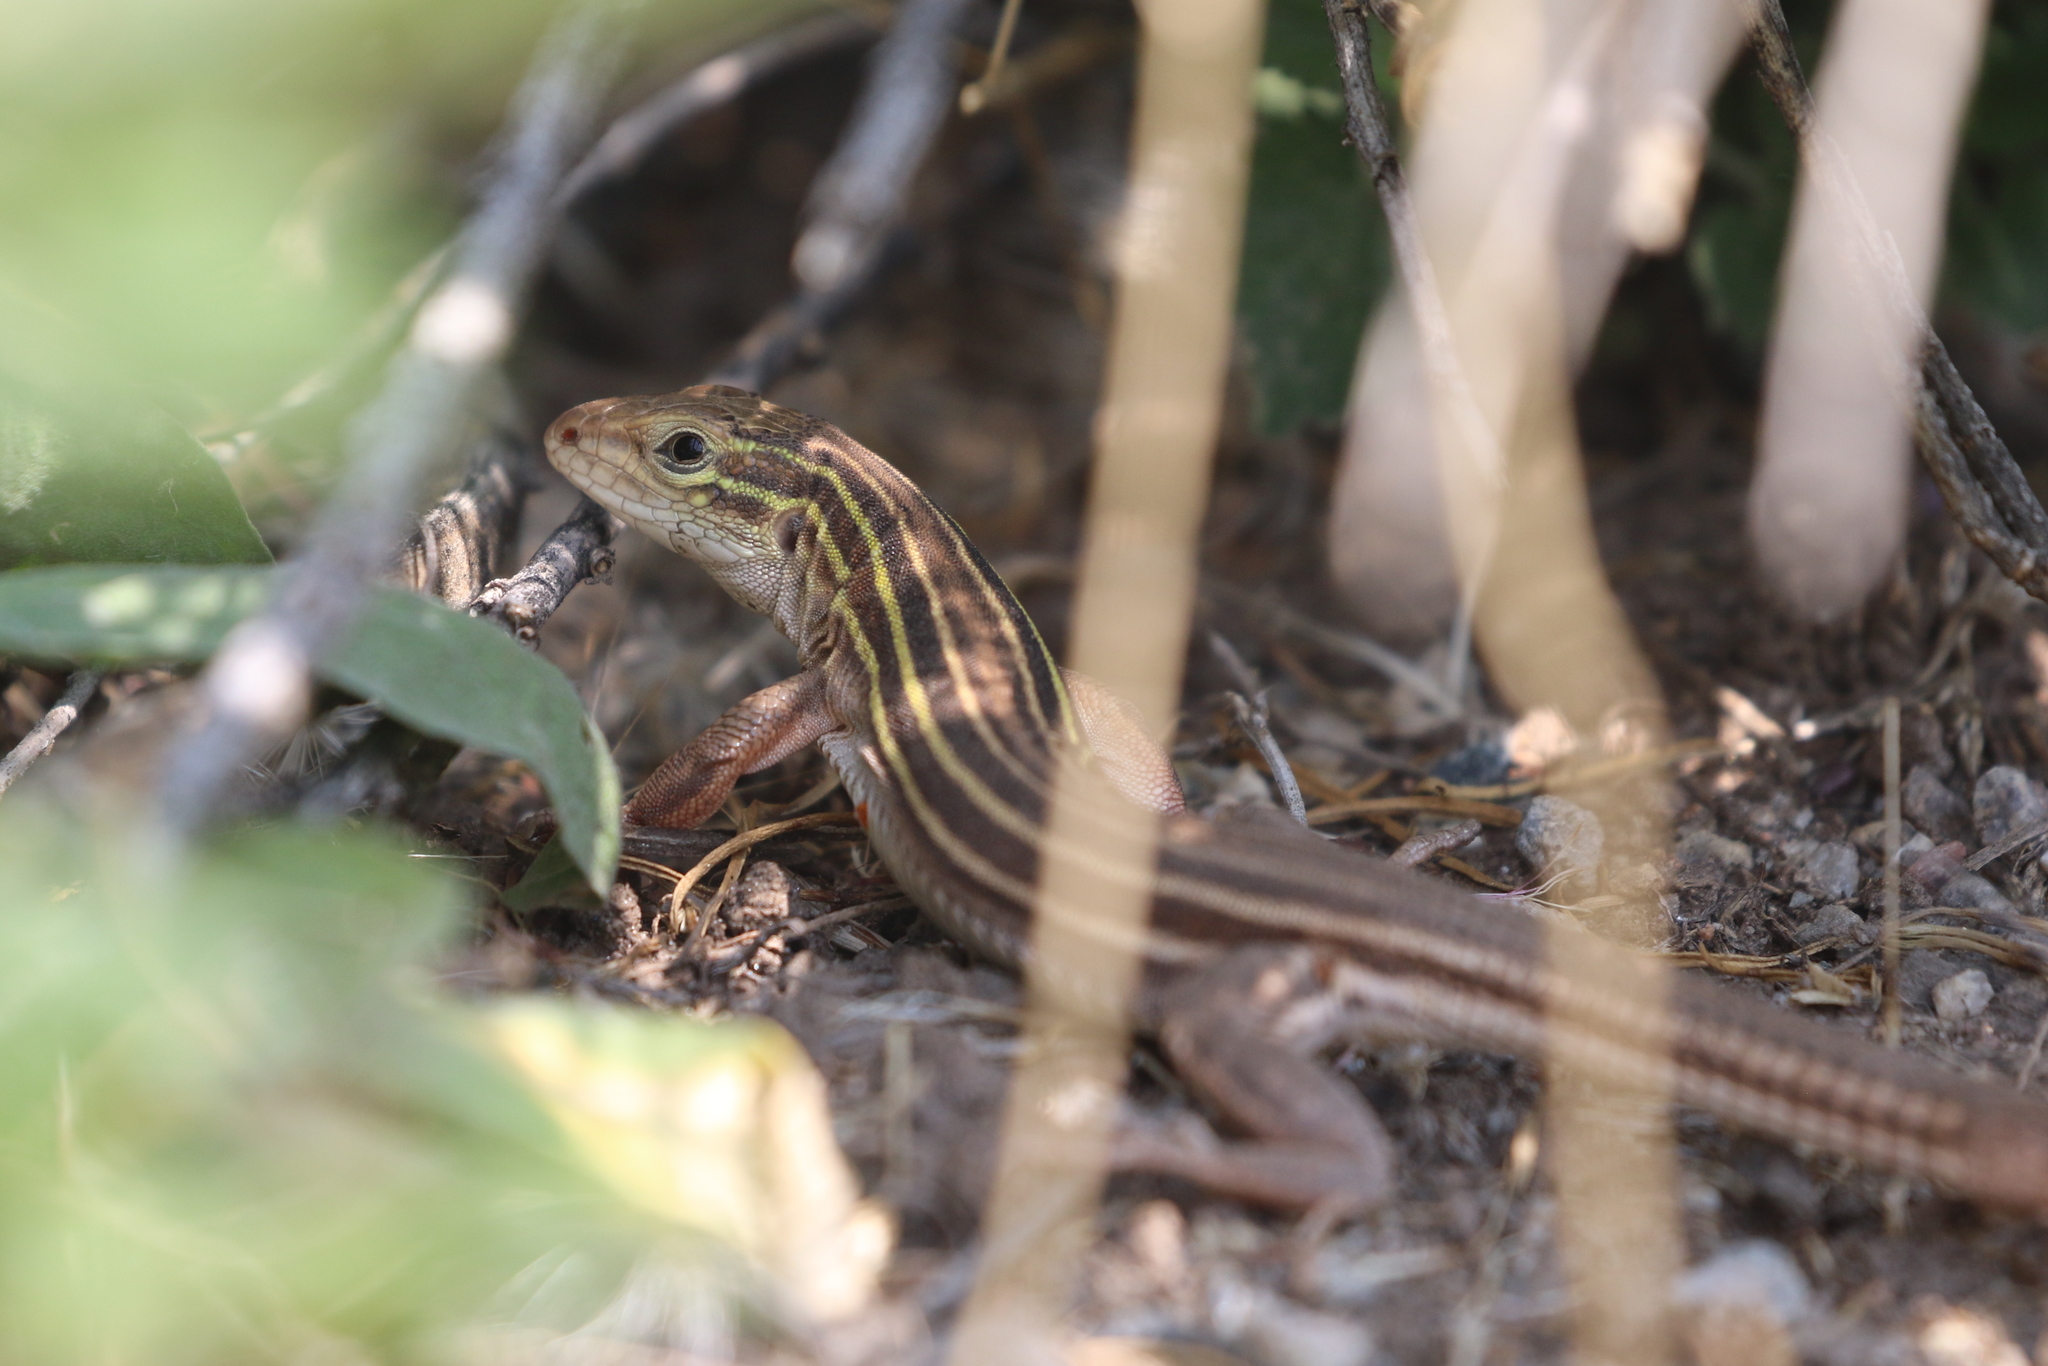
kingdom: Animalia
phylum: Chordata
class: Squamata
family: Teiidae
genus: Aspidoscelis
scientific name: Aspidoscelis sexlineatus
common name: Six-lined racerunner
